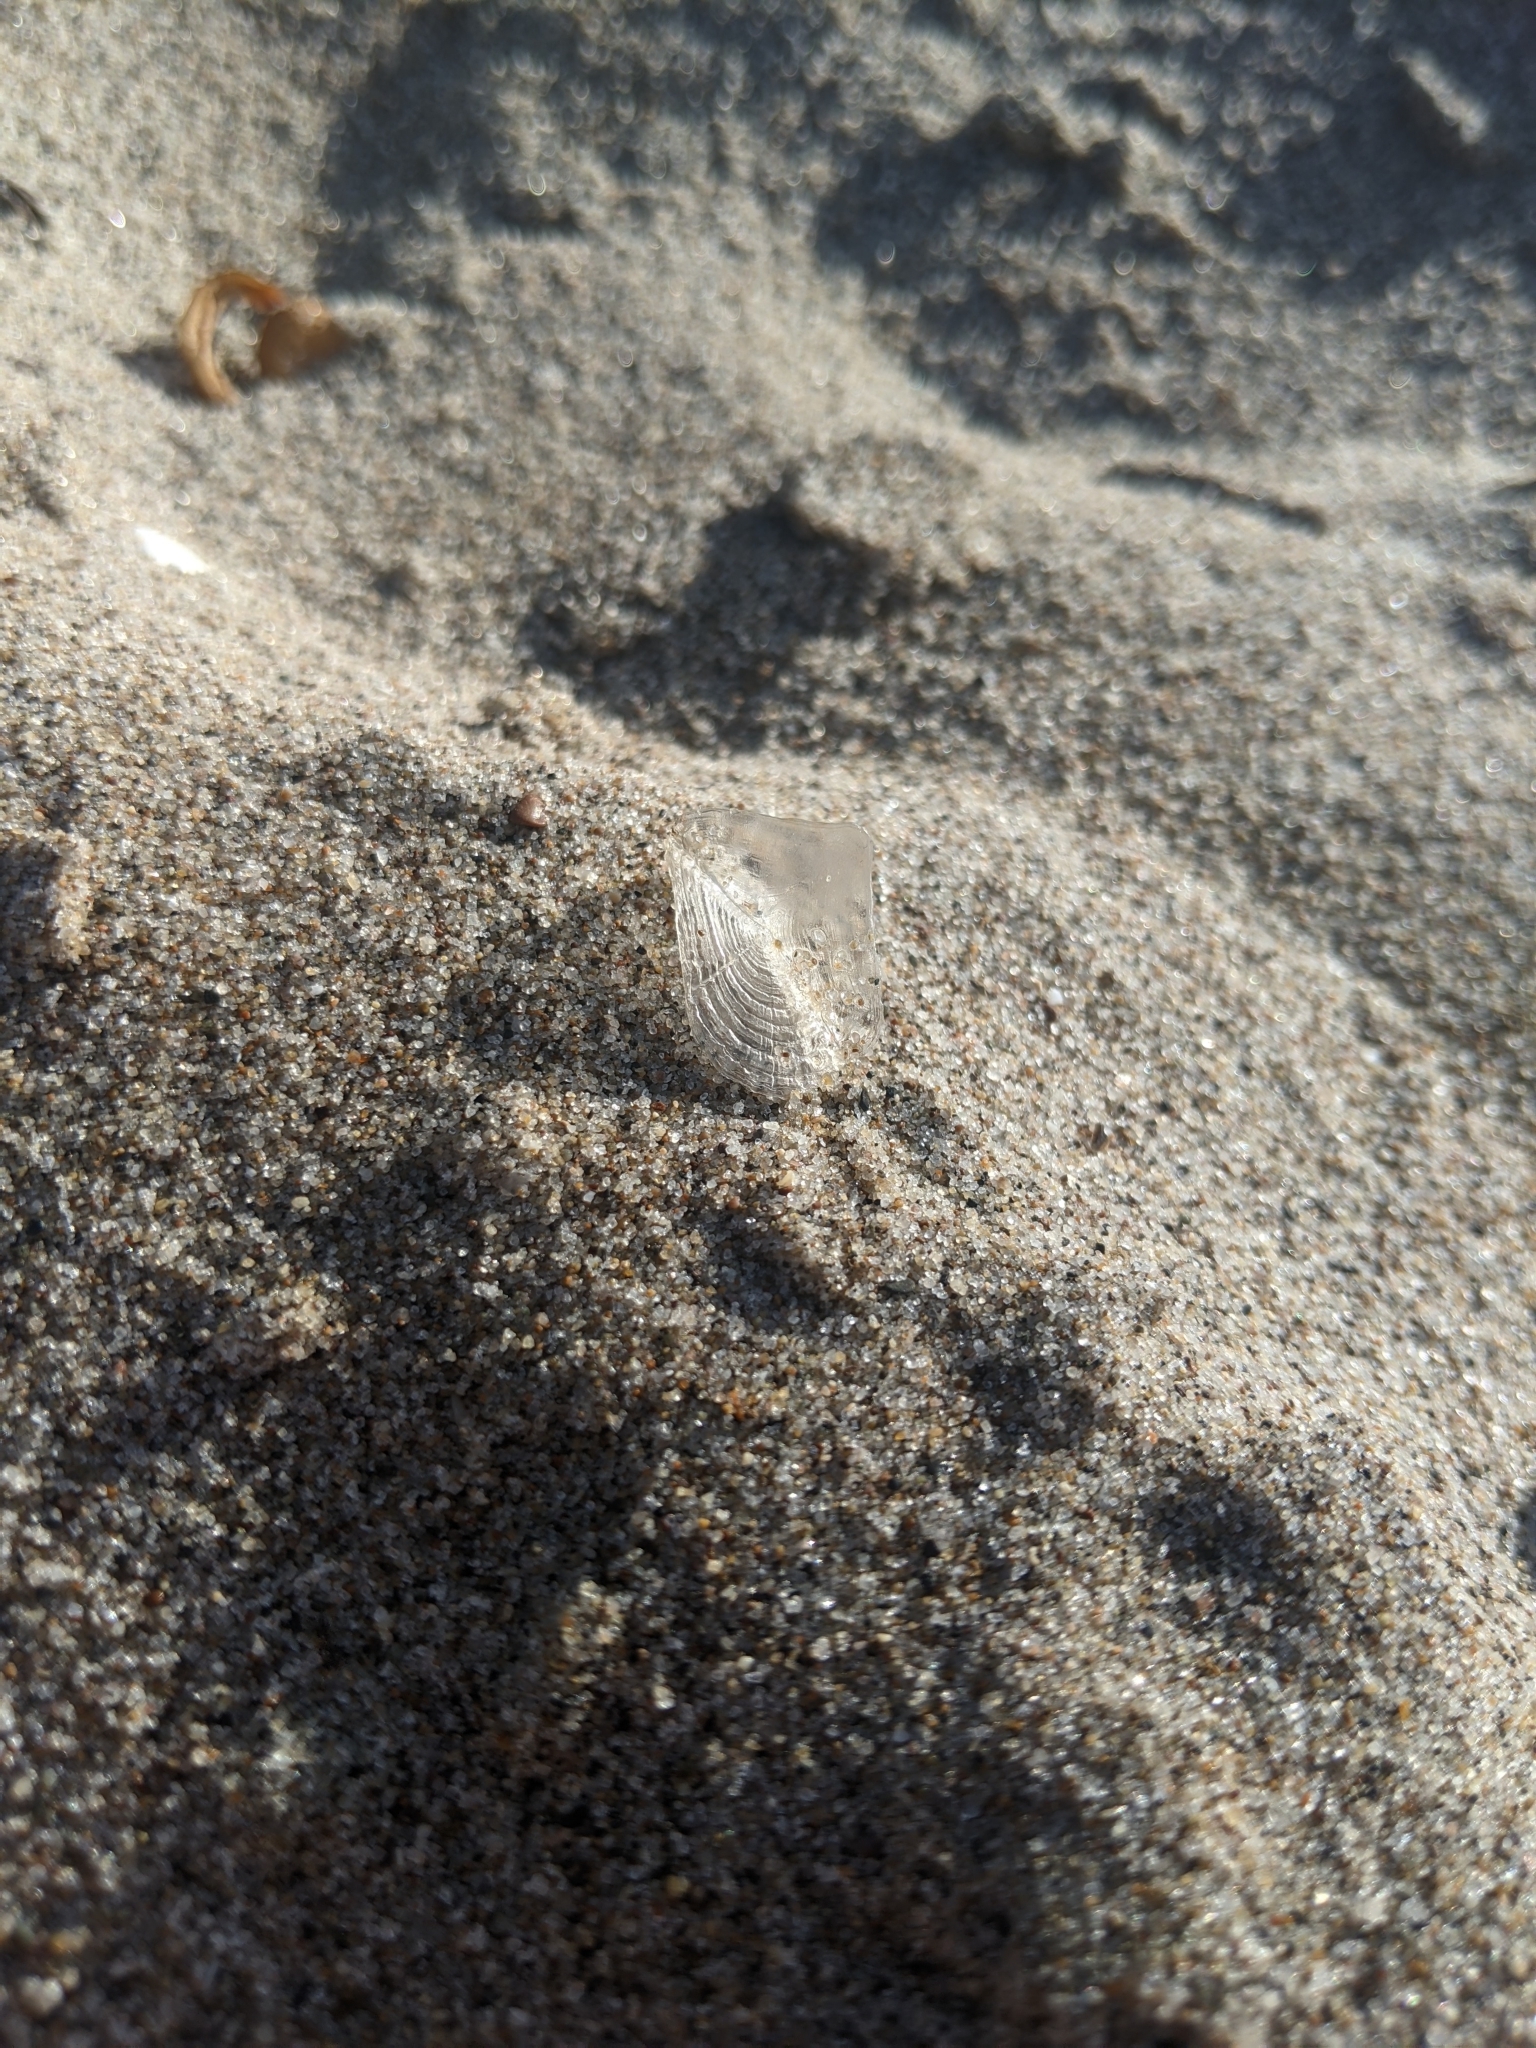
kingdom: Animalia
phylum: Cnidaria
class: Hydrozoa
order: Anthoathecata
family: Porpitidae
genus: Velella
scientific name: Velella velella
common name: By-the-wind-sailor
